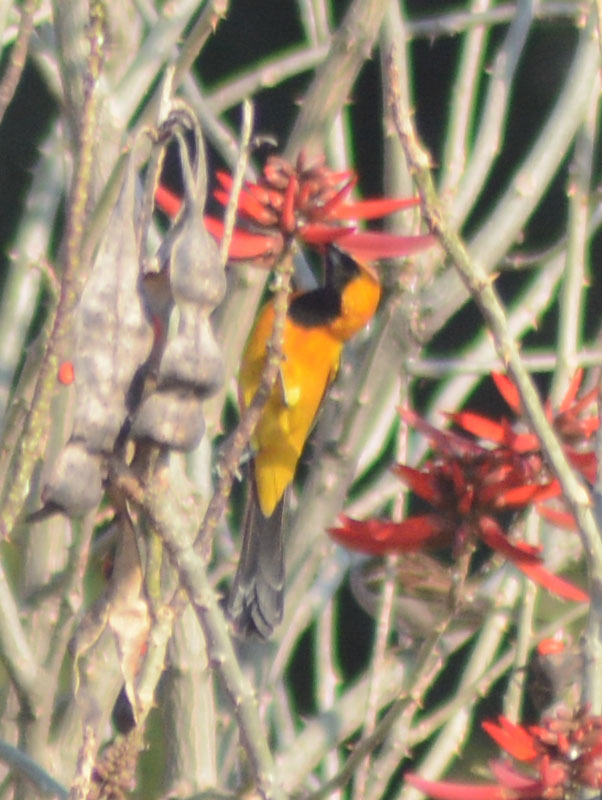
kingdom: Animalia
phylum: Chordata
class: Aves
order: Passeriformes
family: Icteridae
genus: Icterus
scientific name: Icterus cucullatus
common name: Hooded oriole
